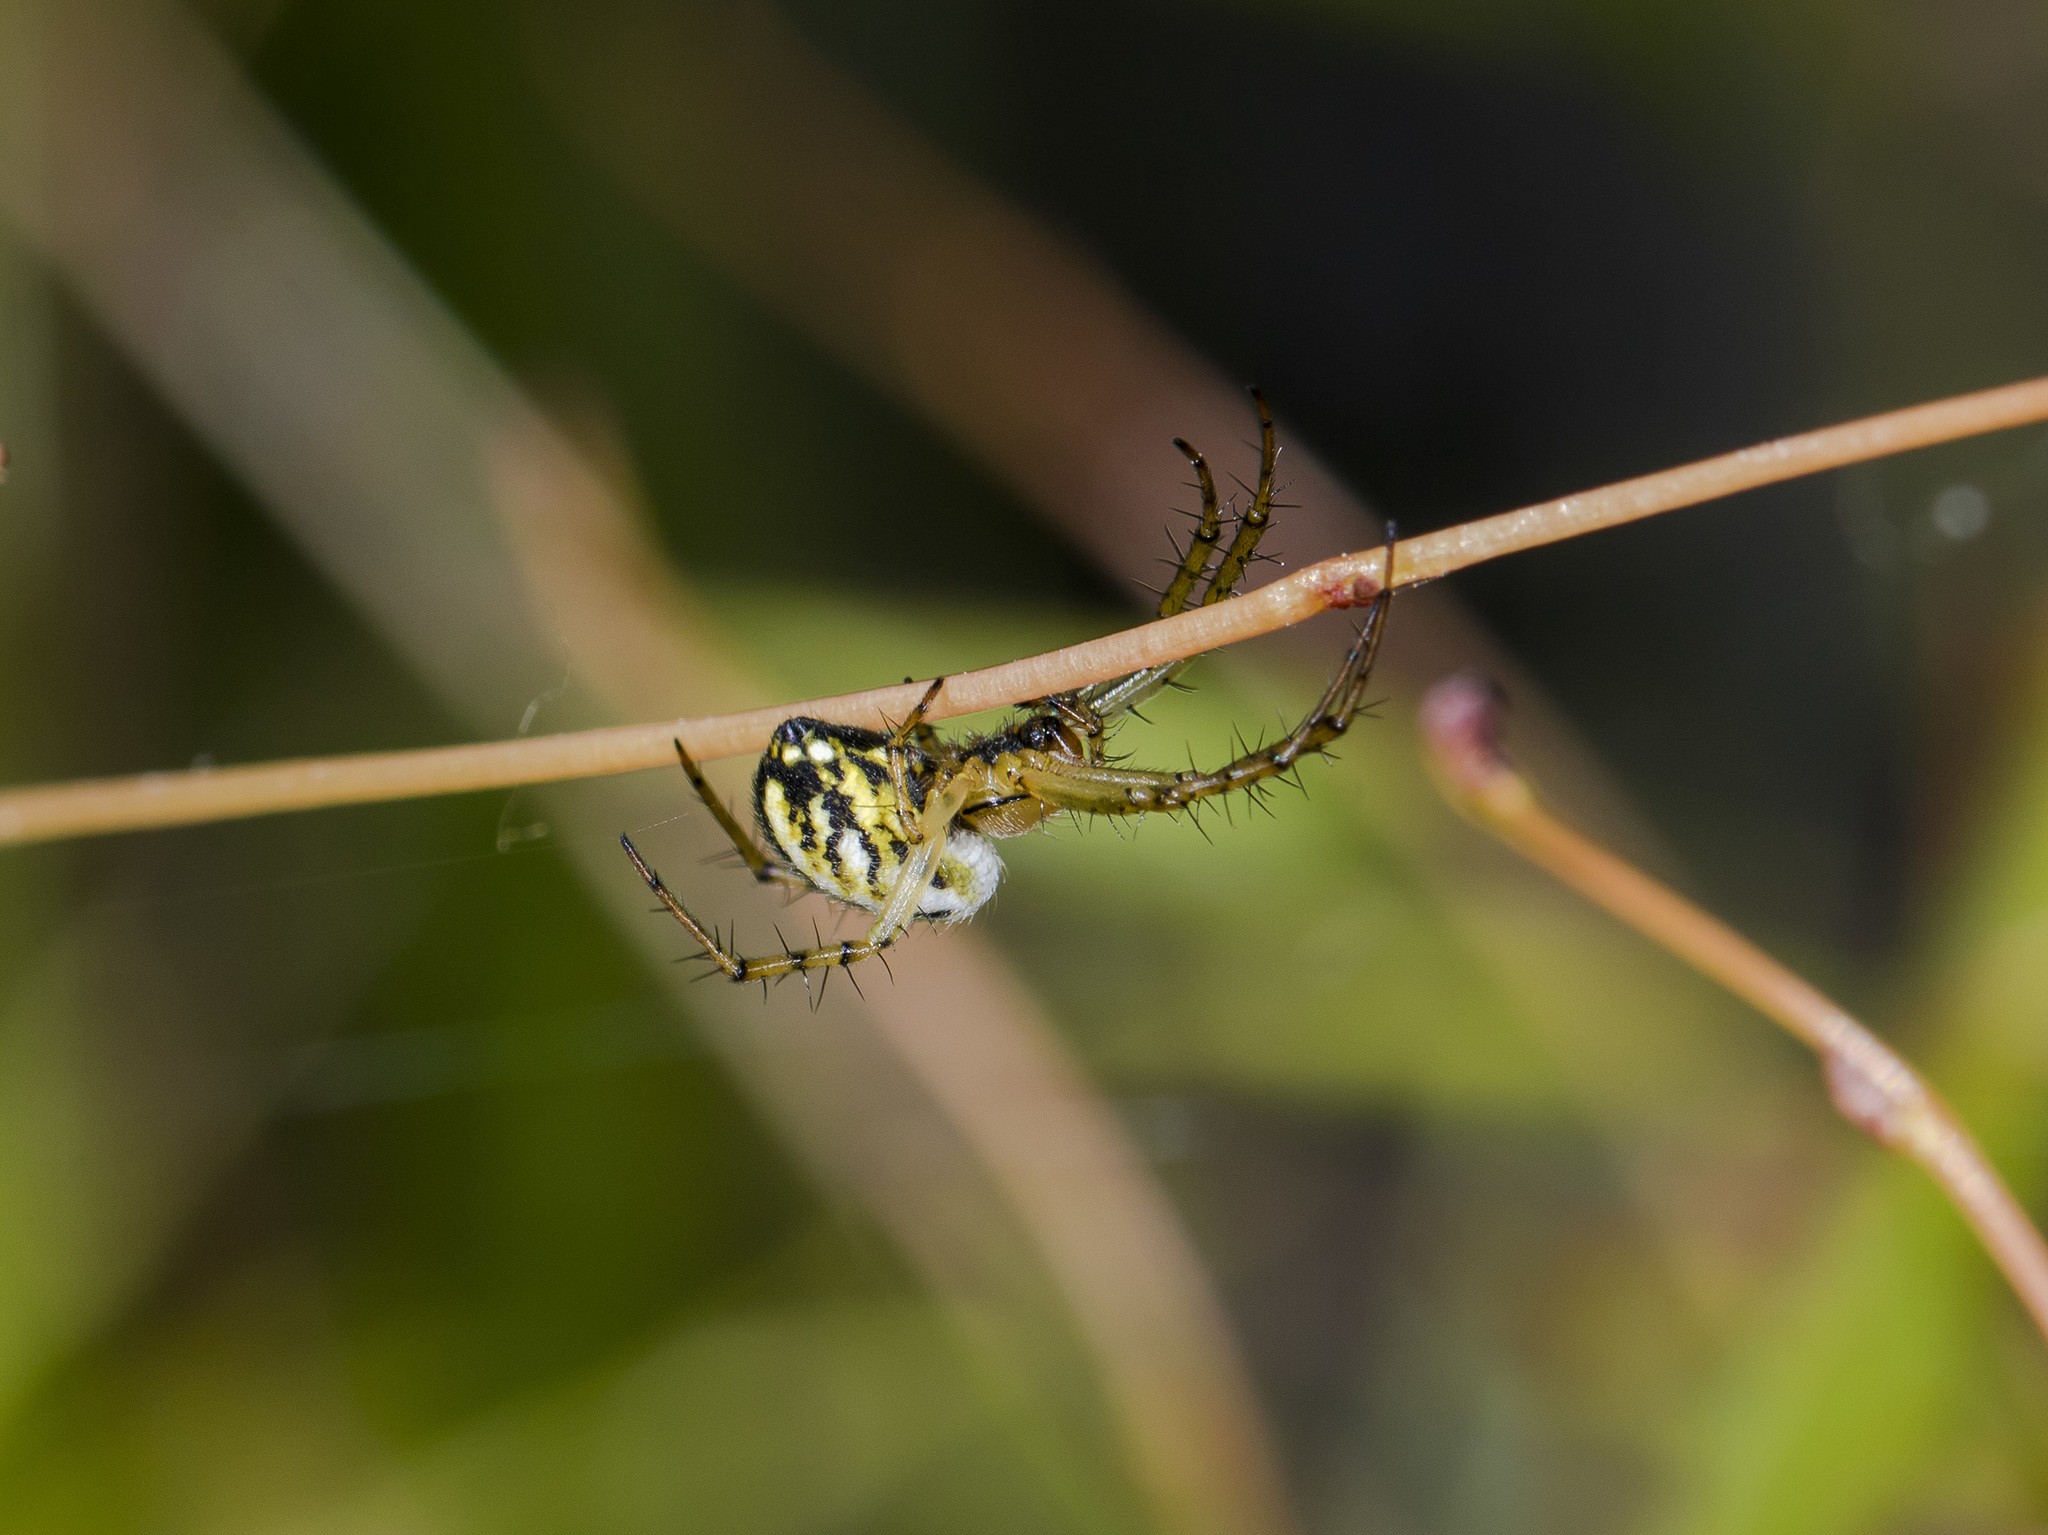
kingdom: Animalia
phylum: Arthropoda
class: Arachnida
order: Araneae
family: Araneidae
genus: Mangora
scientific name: Mangora acalypha
